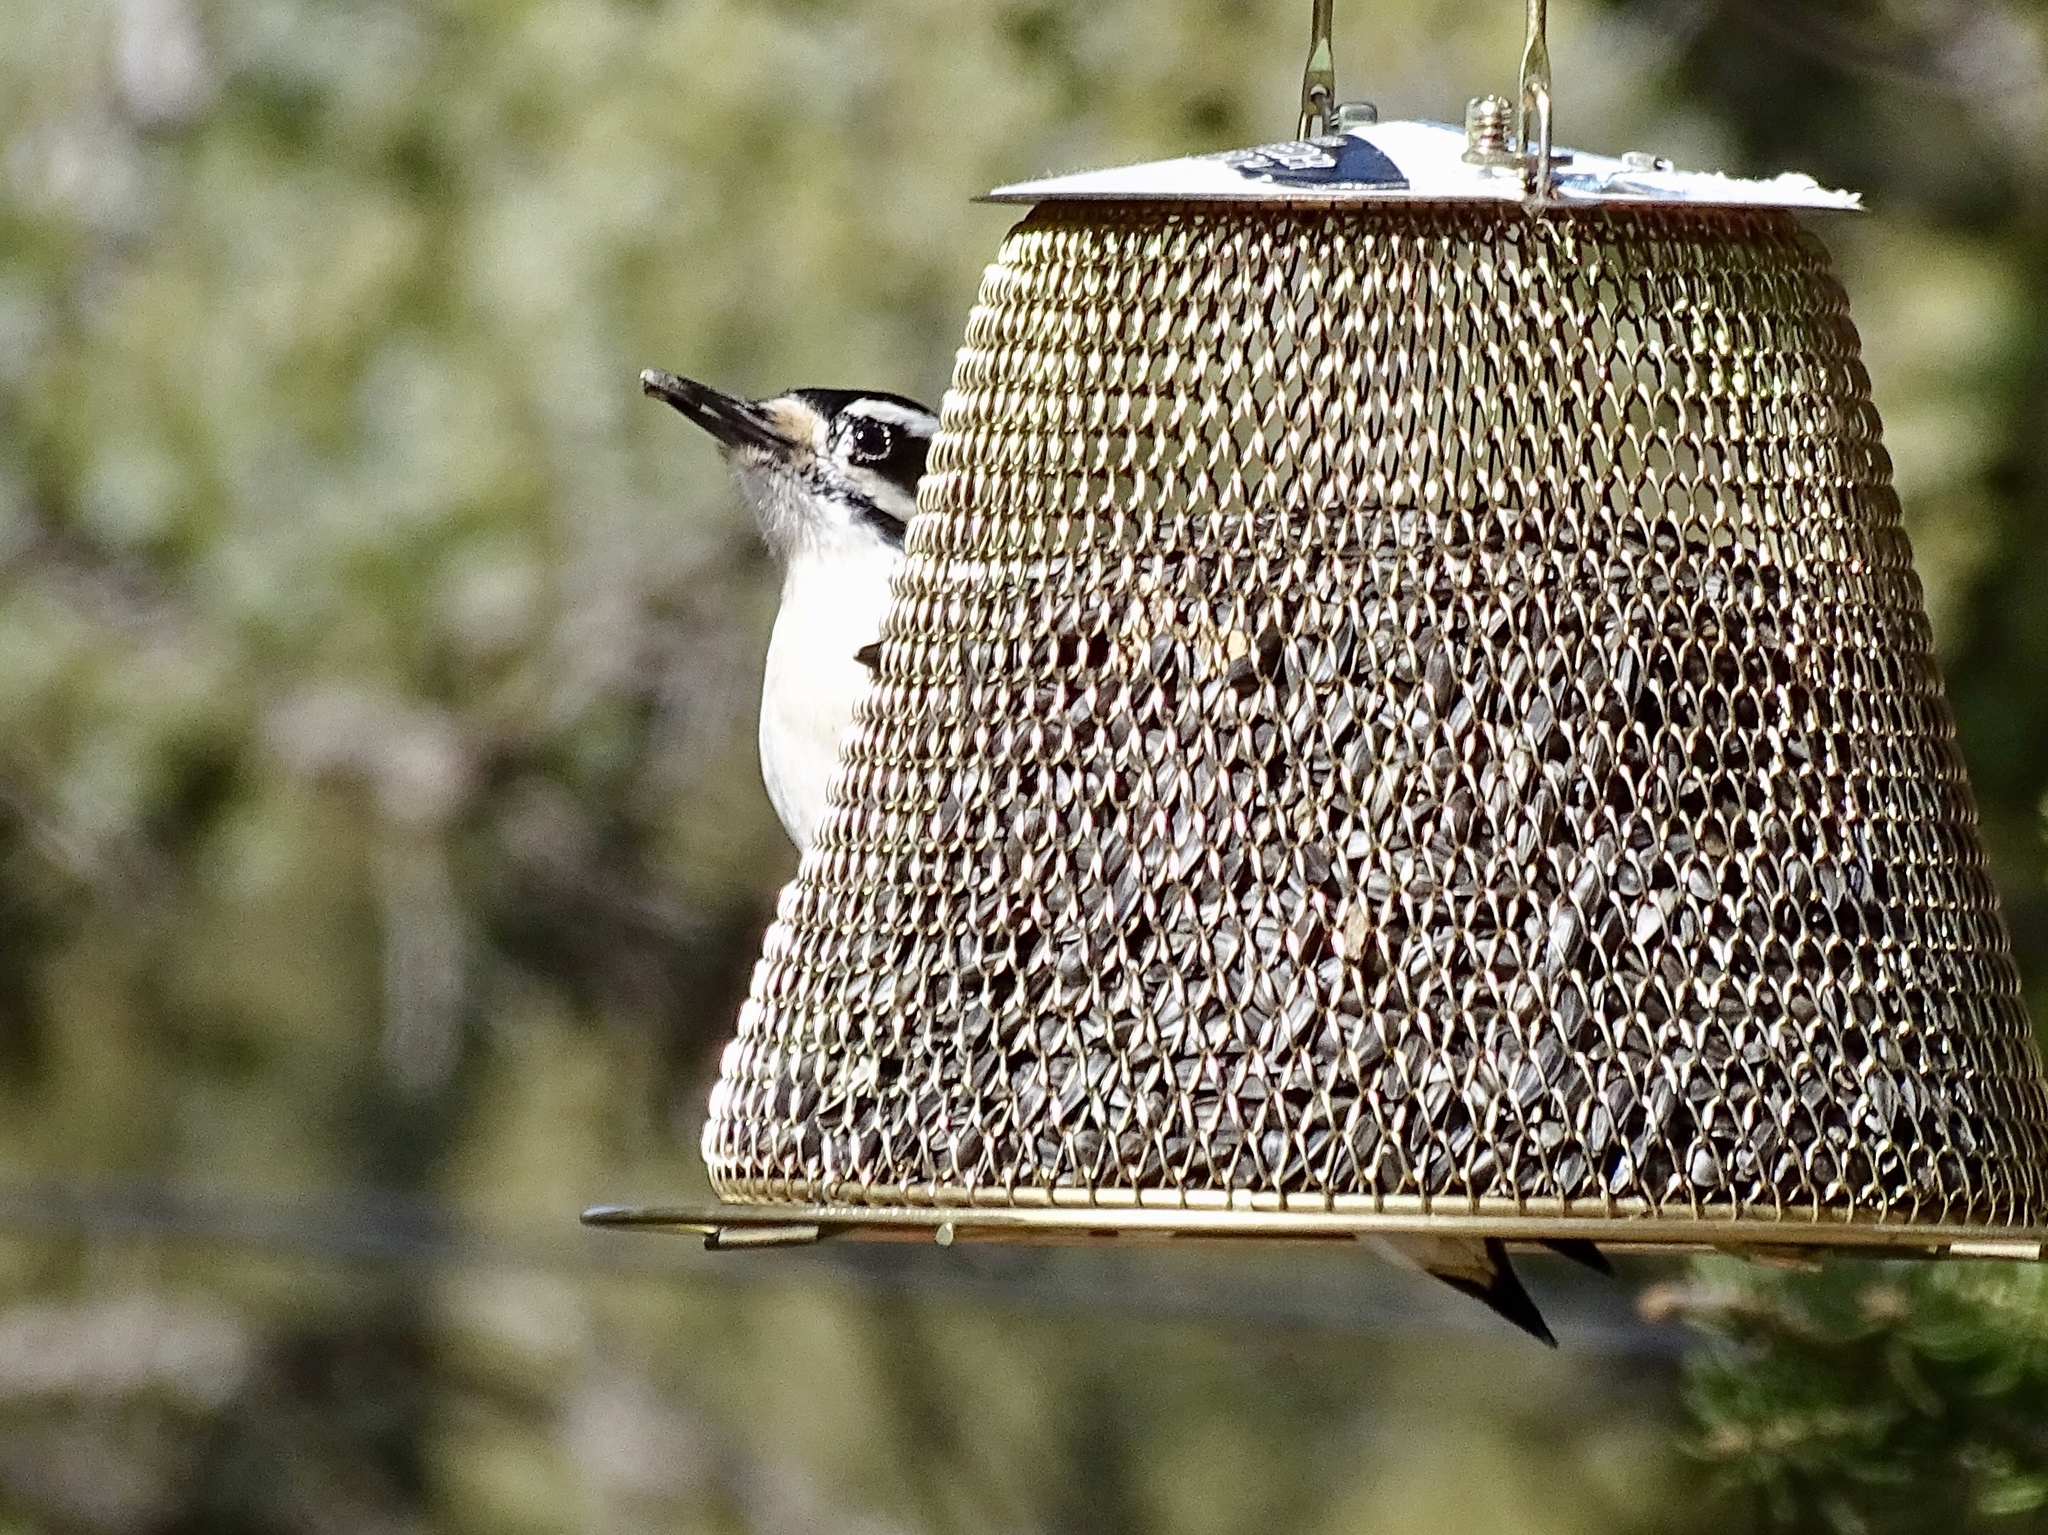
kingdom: Animalia
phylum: Chordata
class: Aves
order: Piciformes
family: Picidae
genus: Leuconotopicus
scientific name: Leuconotopicus villosus
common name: Hairy woodpecker
